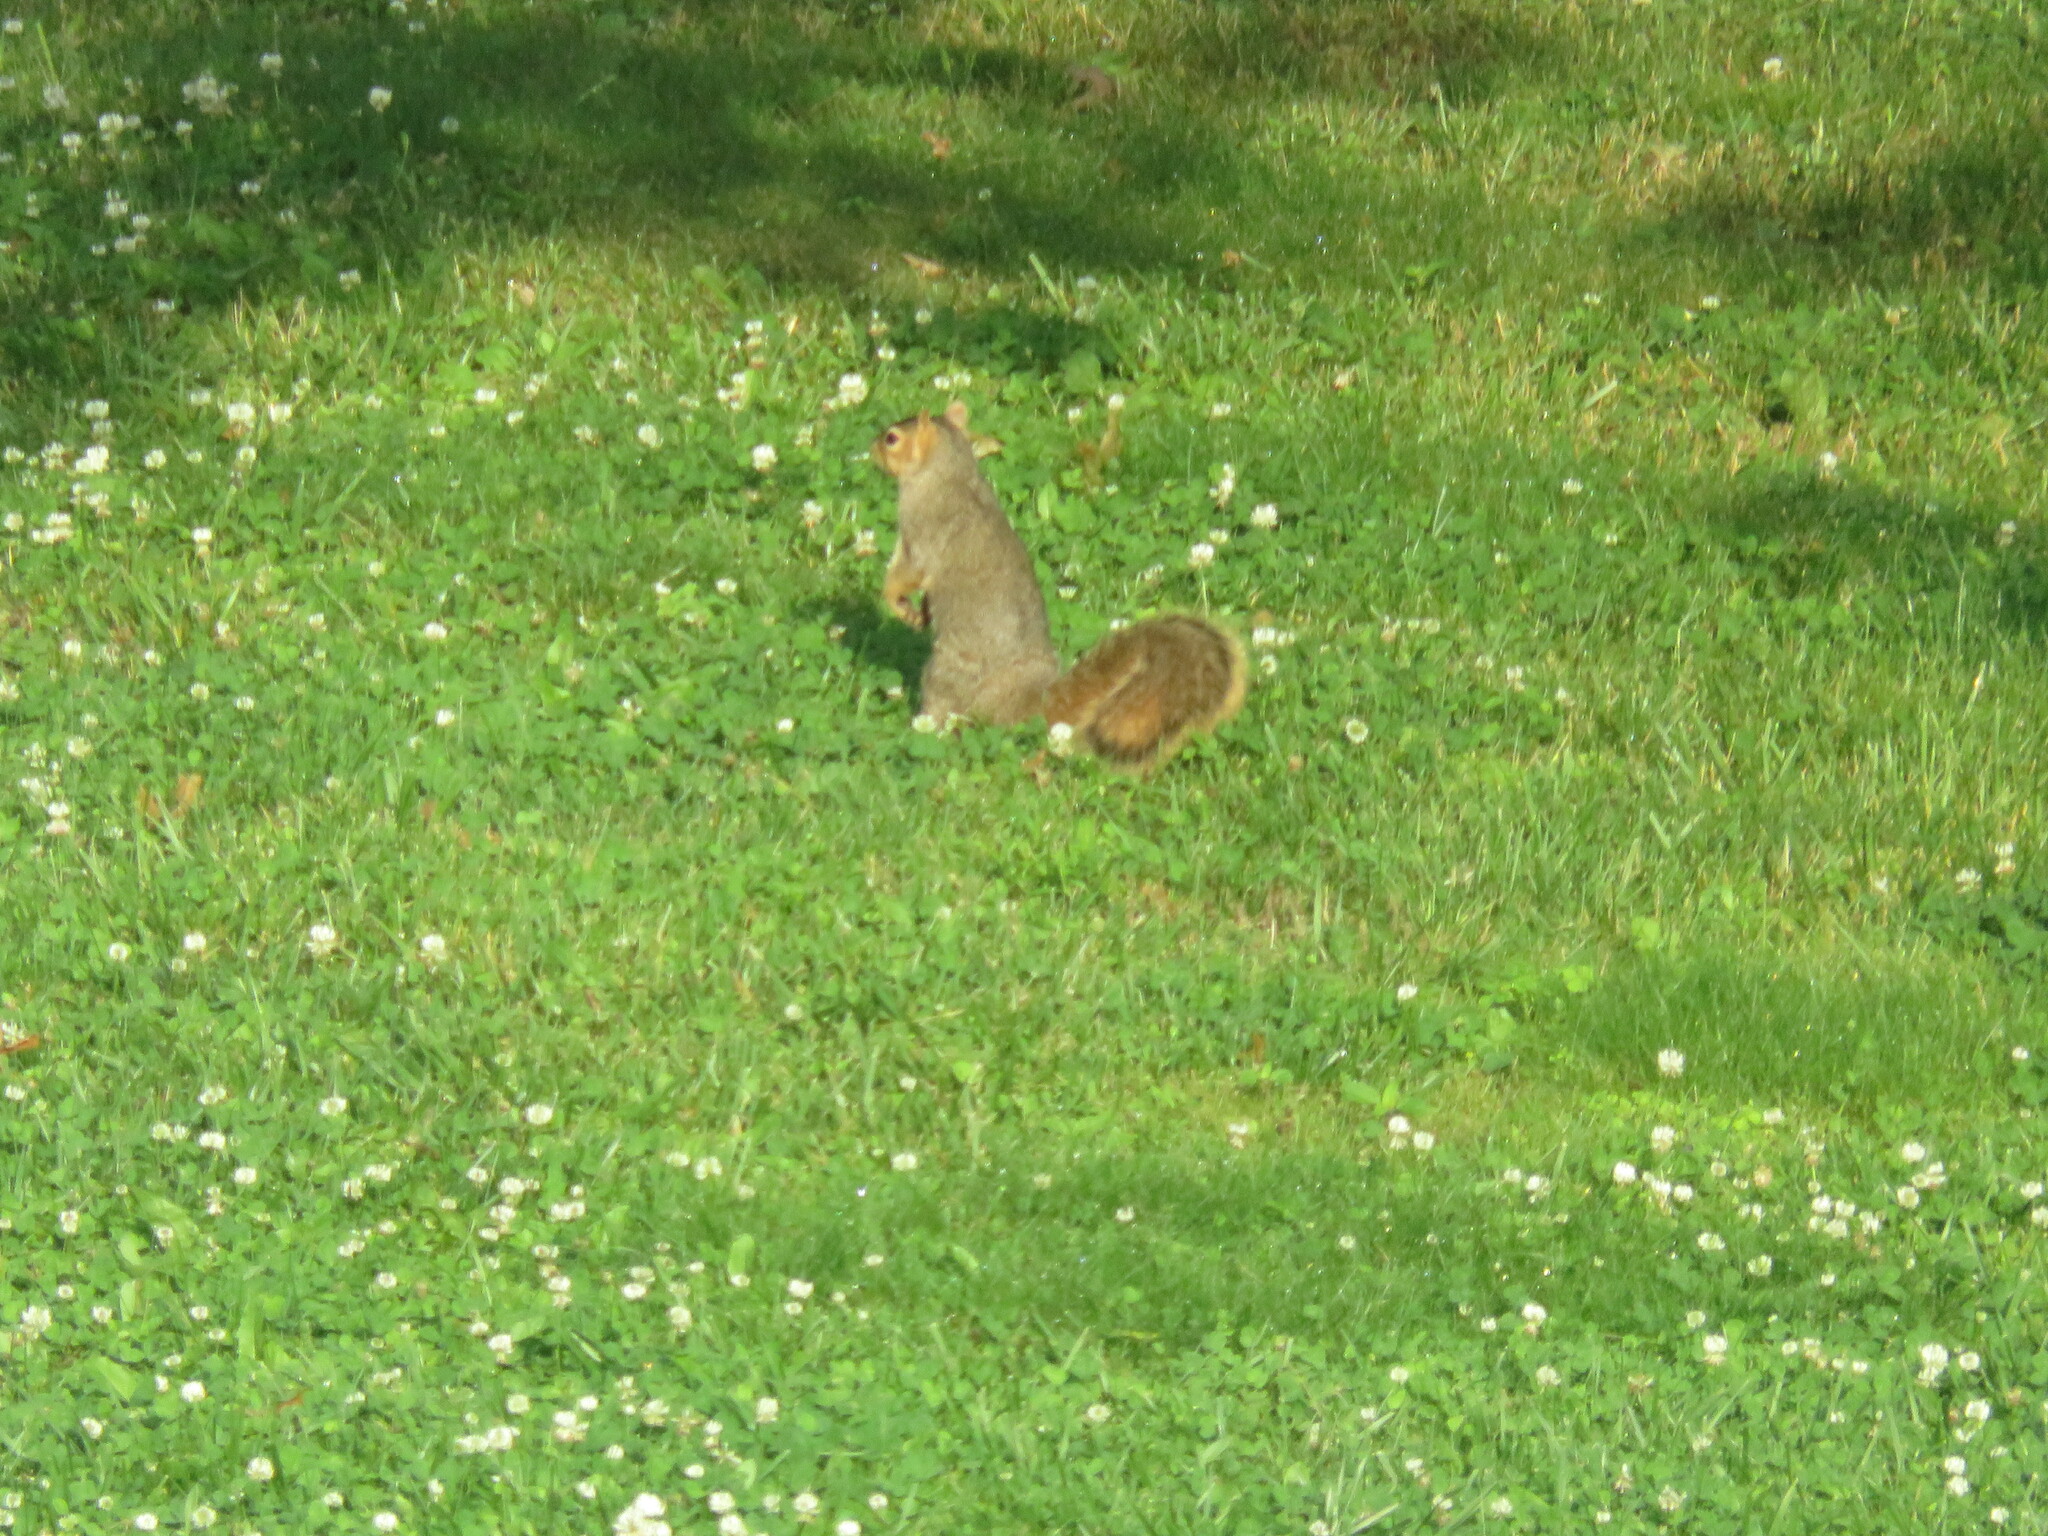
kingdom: Animalia
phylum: Chordata
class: Mammalia
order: Rodentia
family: Sciuridae
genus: Sciurus
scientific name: Sciurus niger
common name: Fox squirrel
